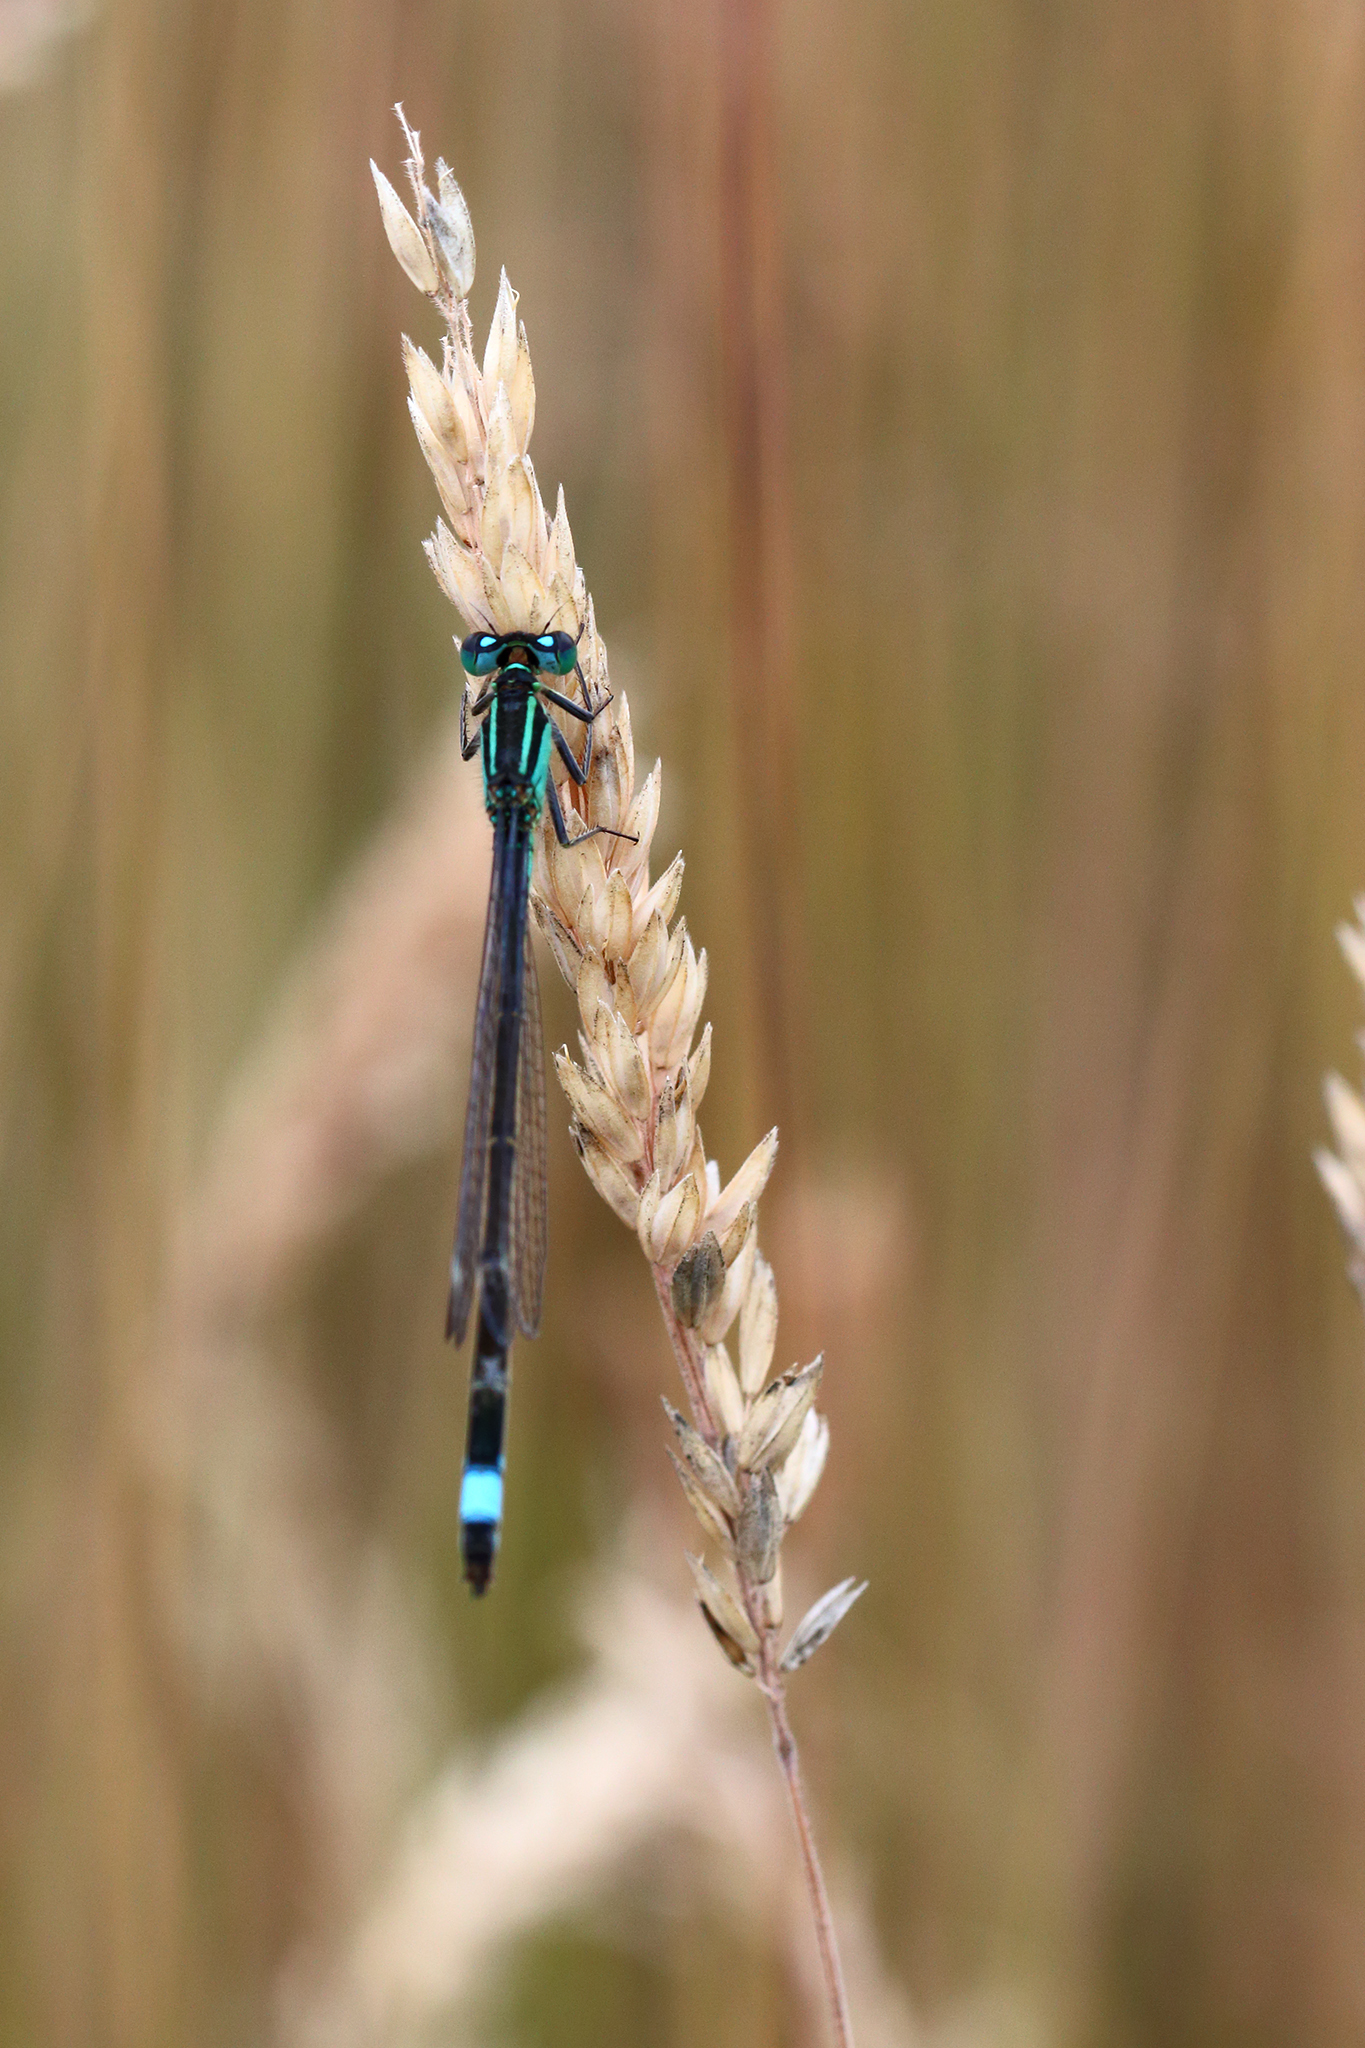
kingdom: Animalia
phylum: Arthropoda
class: Insecta
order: Odonata
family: Coenagrionidae
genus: Ischnura
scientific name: Ischnura elegans
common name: Blue-tailed damselfly
